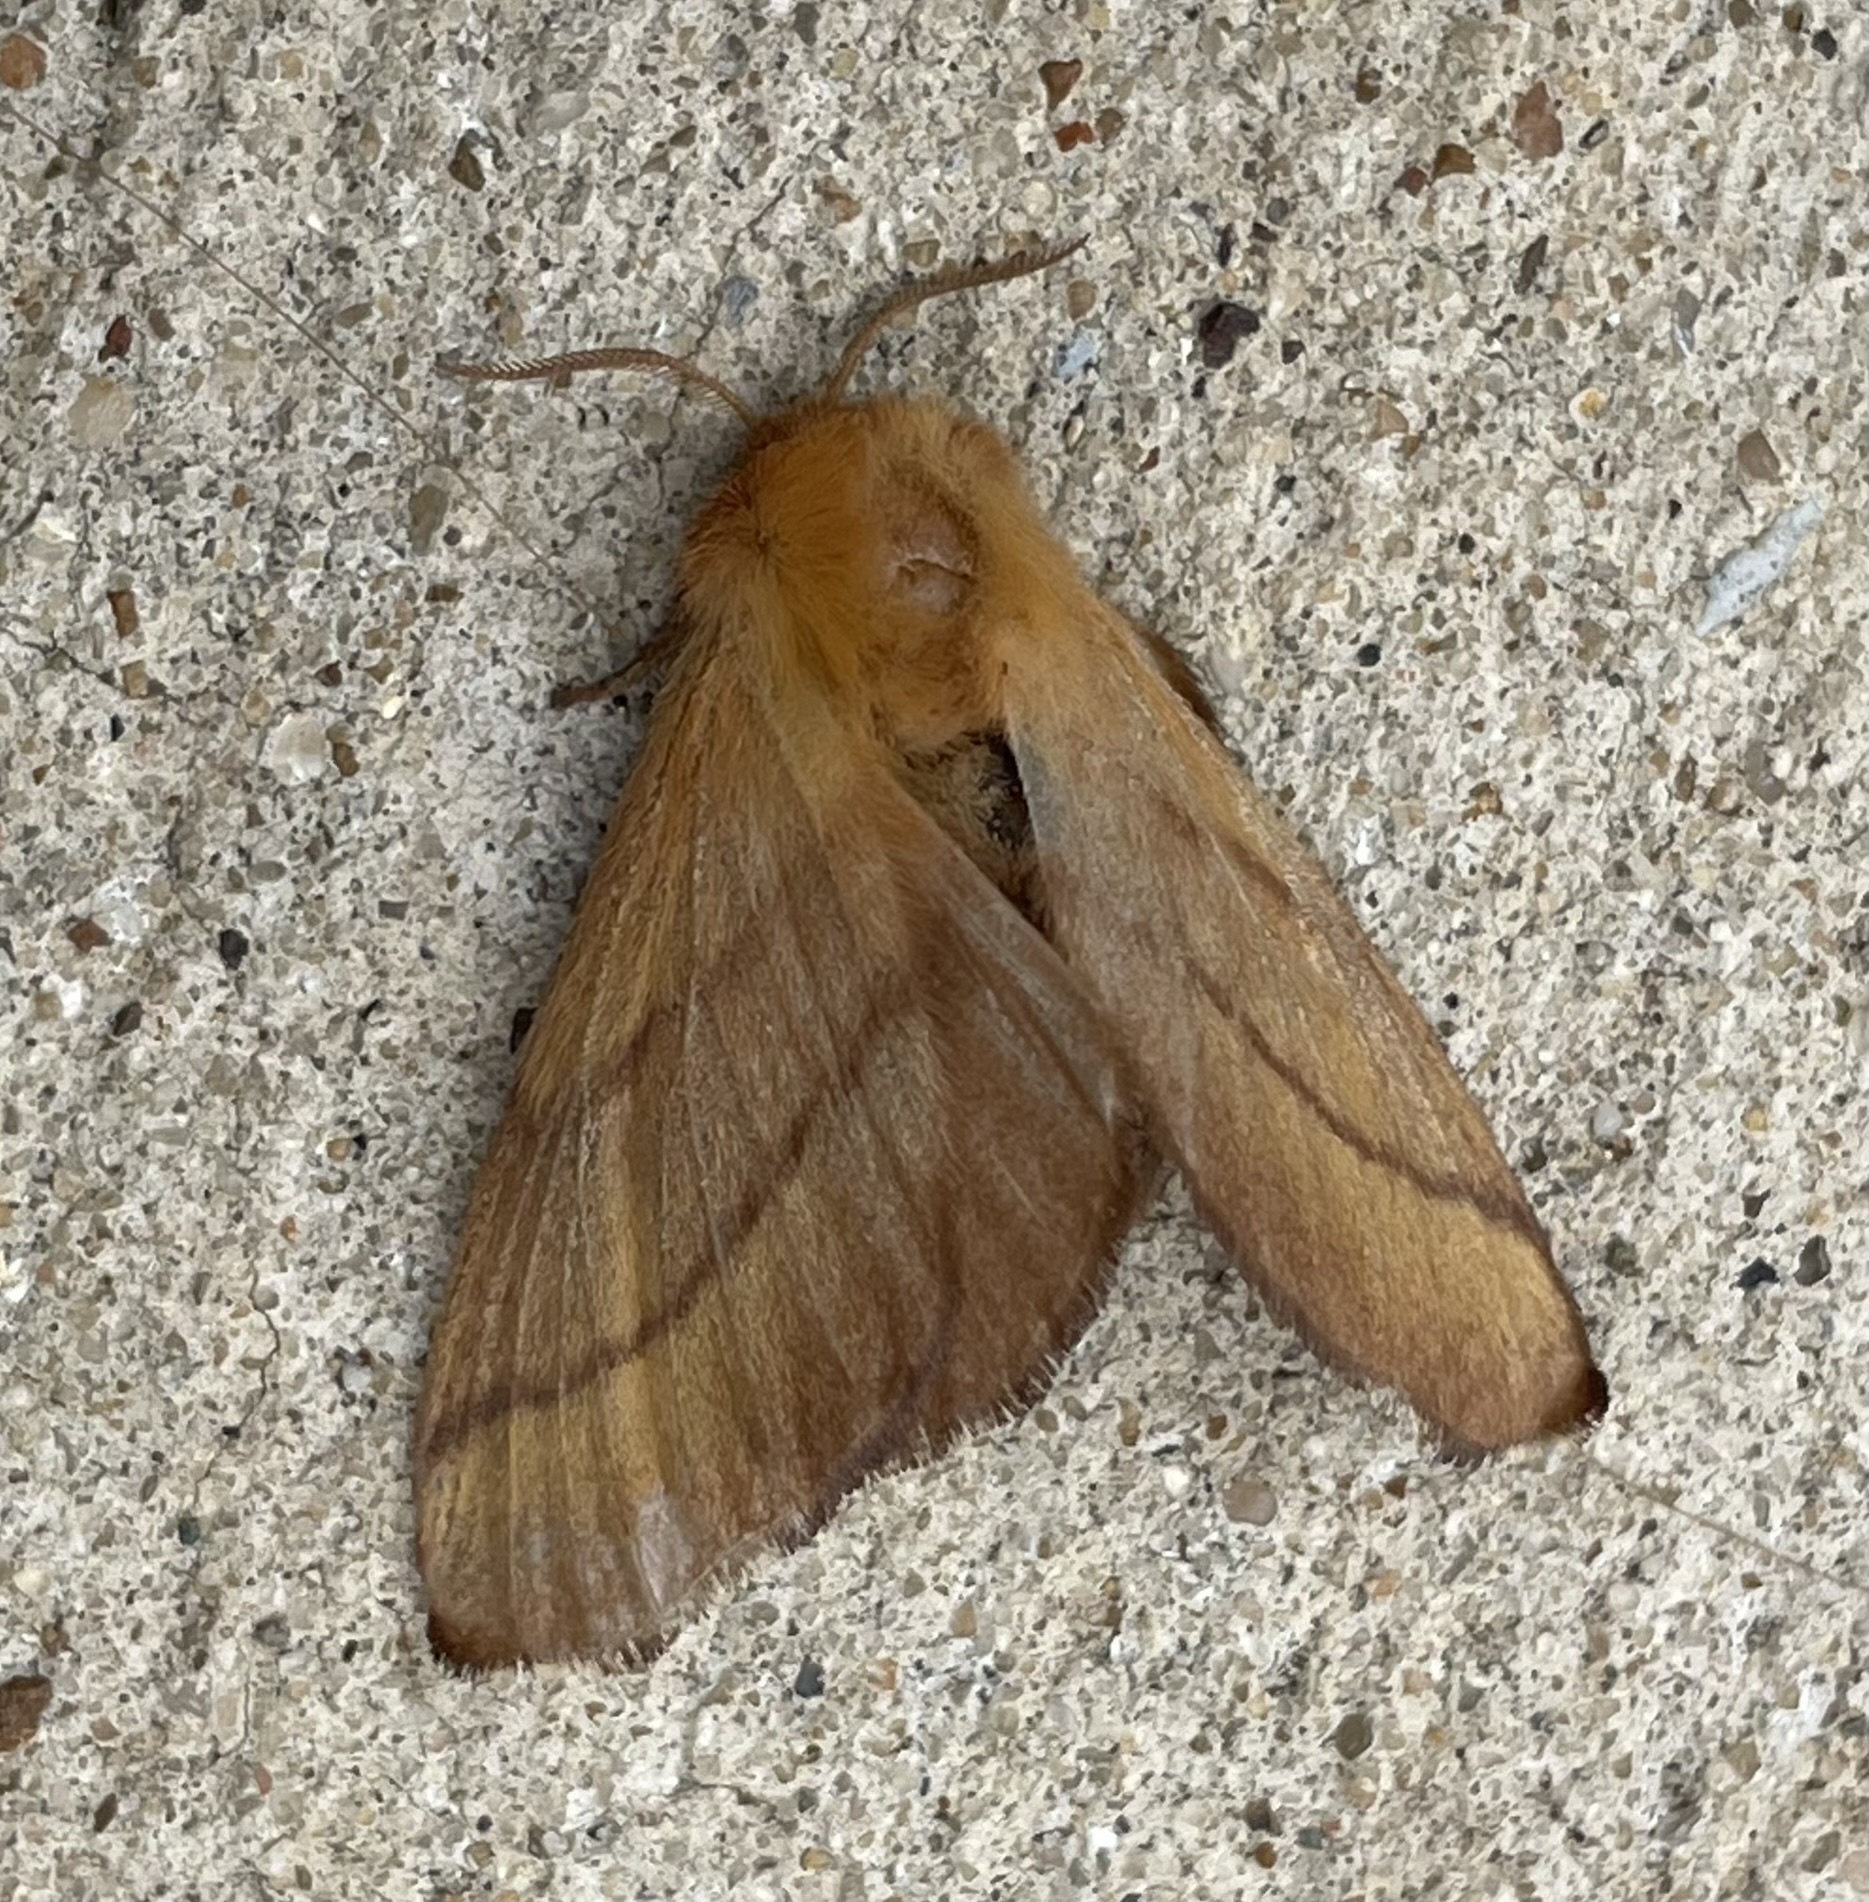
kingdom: Animalia
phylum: Arthropoda
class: Insecta
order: Lepidoptera
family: Lasiocampidae
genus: Malacosoma
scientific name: Malacosoma disstria
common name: Forest tent caterpillar
